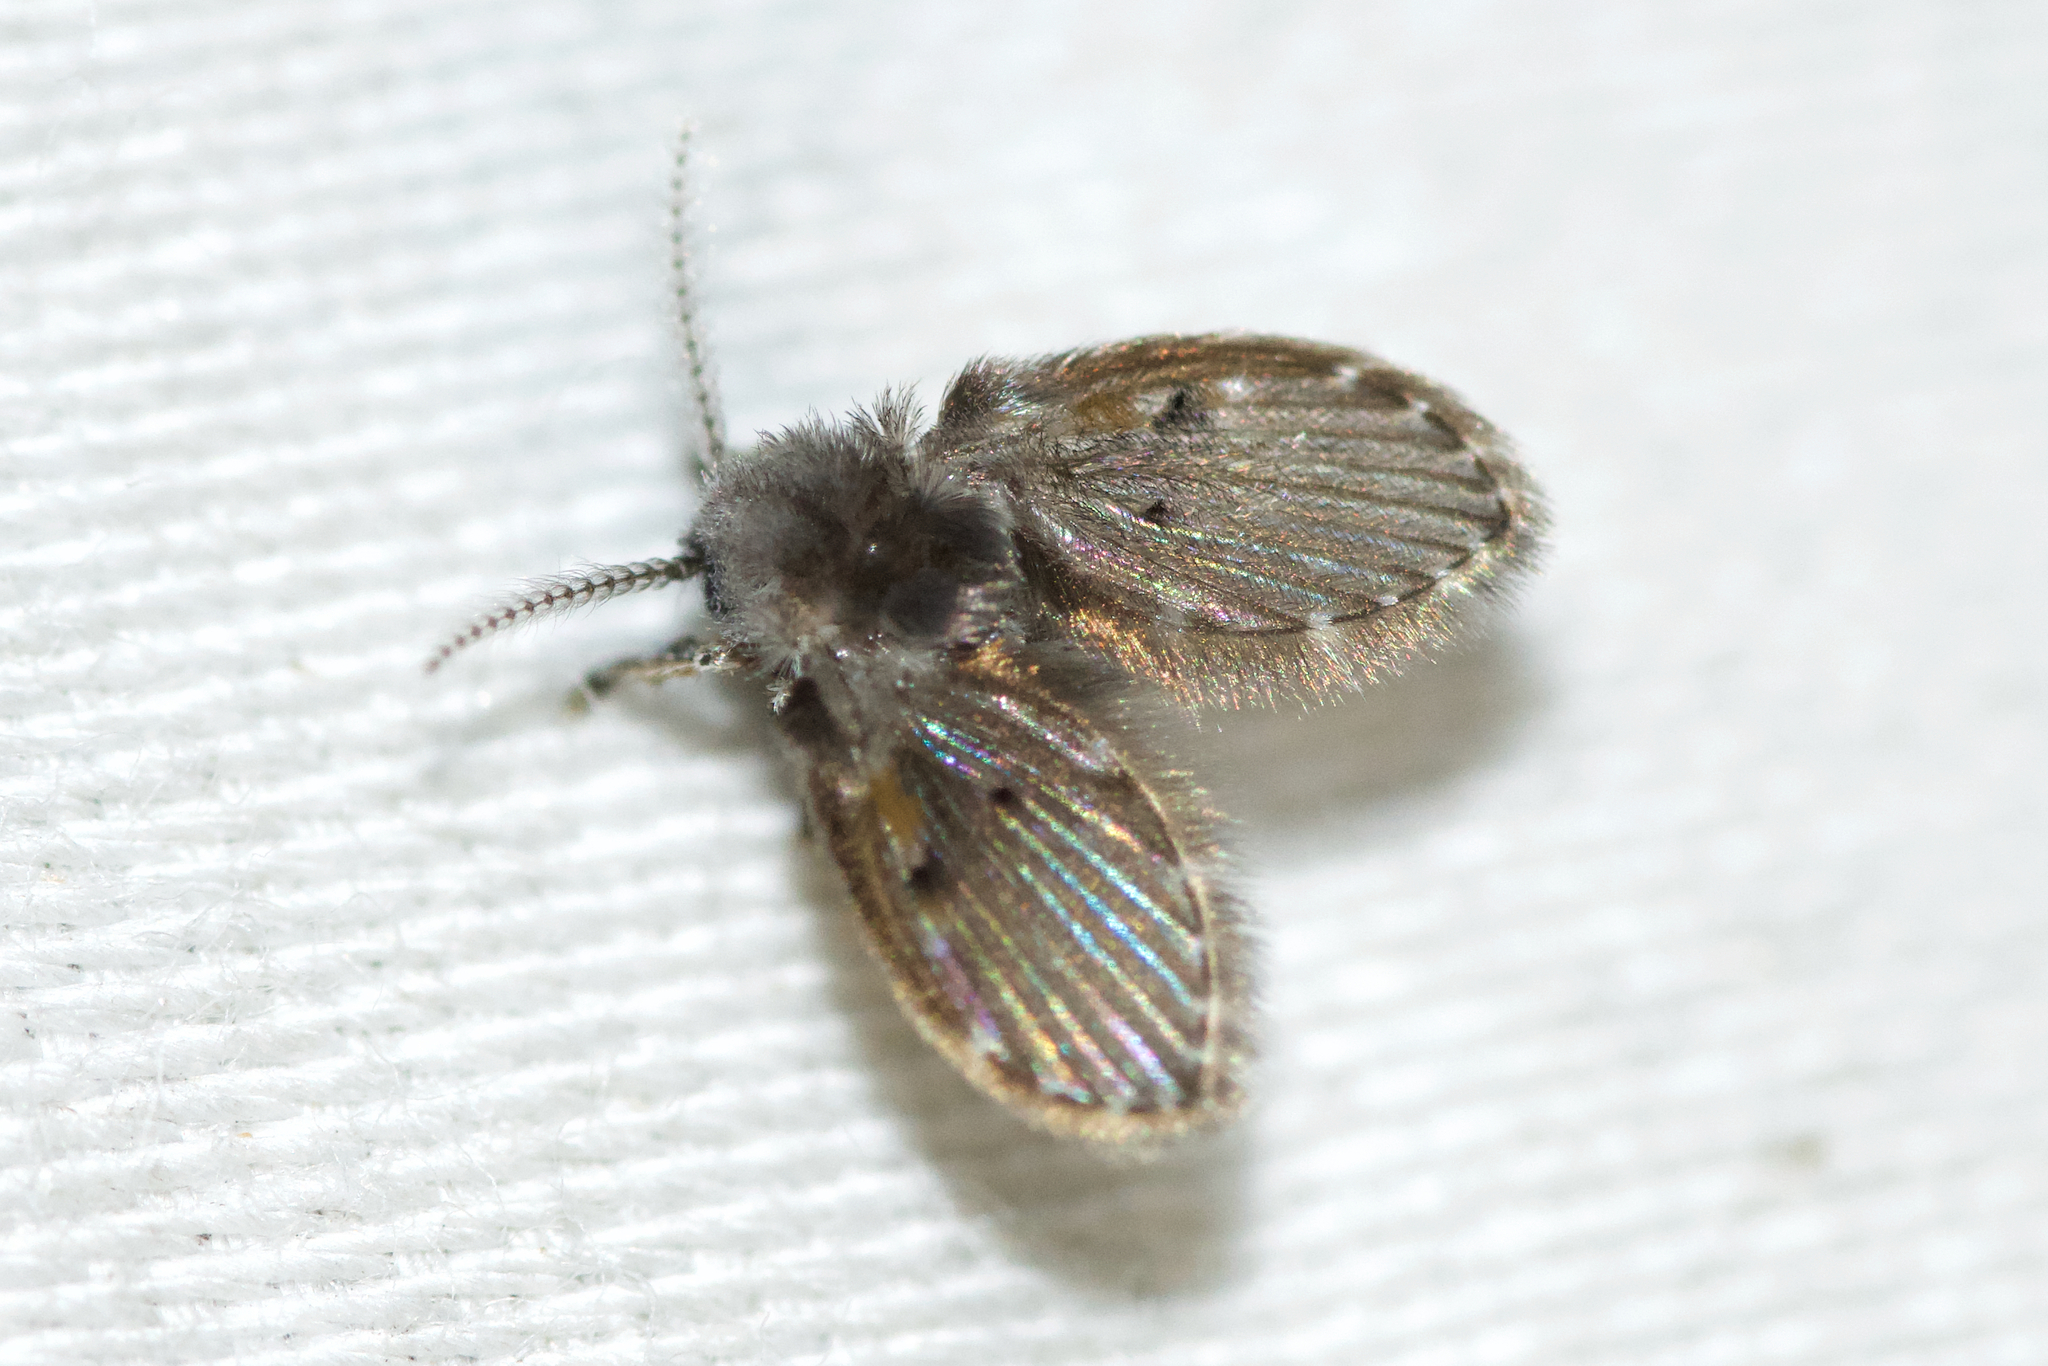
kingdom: Animalia
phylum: Arthropoda
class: Insecta
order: Diptera
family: Psychodidae
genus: Clogmia
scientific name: Clogmia albipunctatus
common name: White-spotted moth fly
